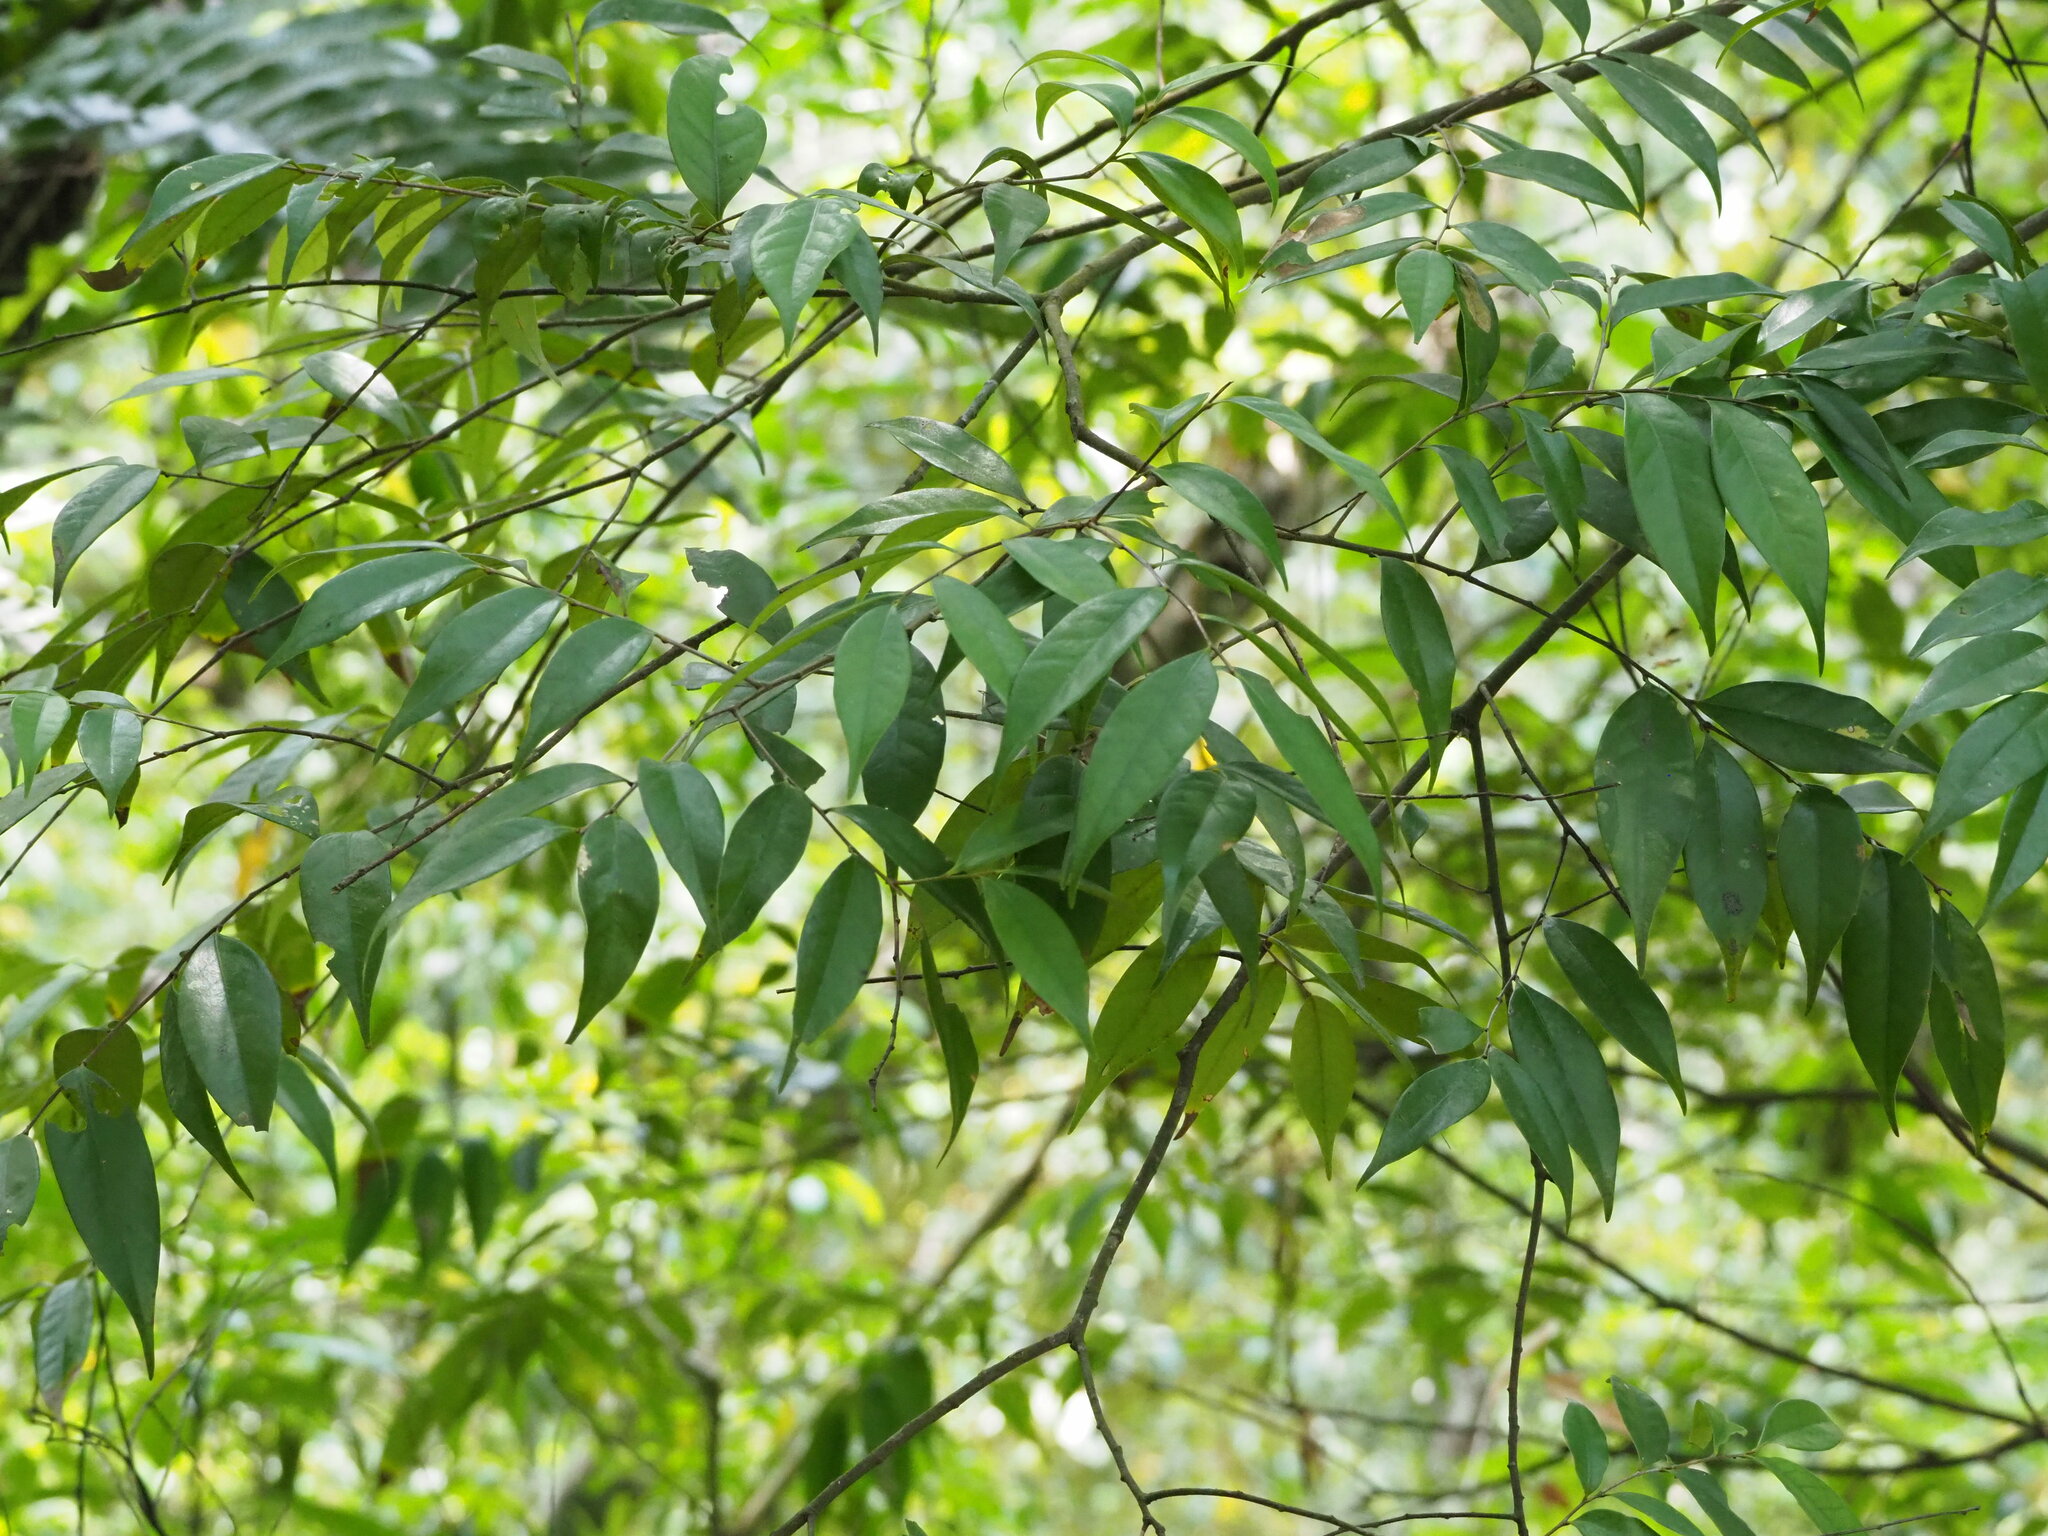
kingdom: Plantae
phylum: Tracheophyta
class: Magnoliopsida
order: Fagales
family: Fagaceae
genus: Lithocarpus
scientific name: Lithocarpus uraianus
